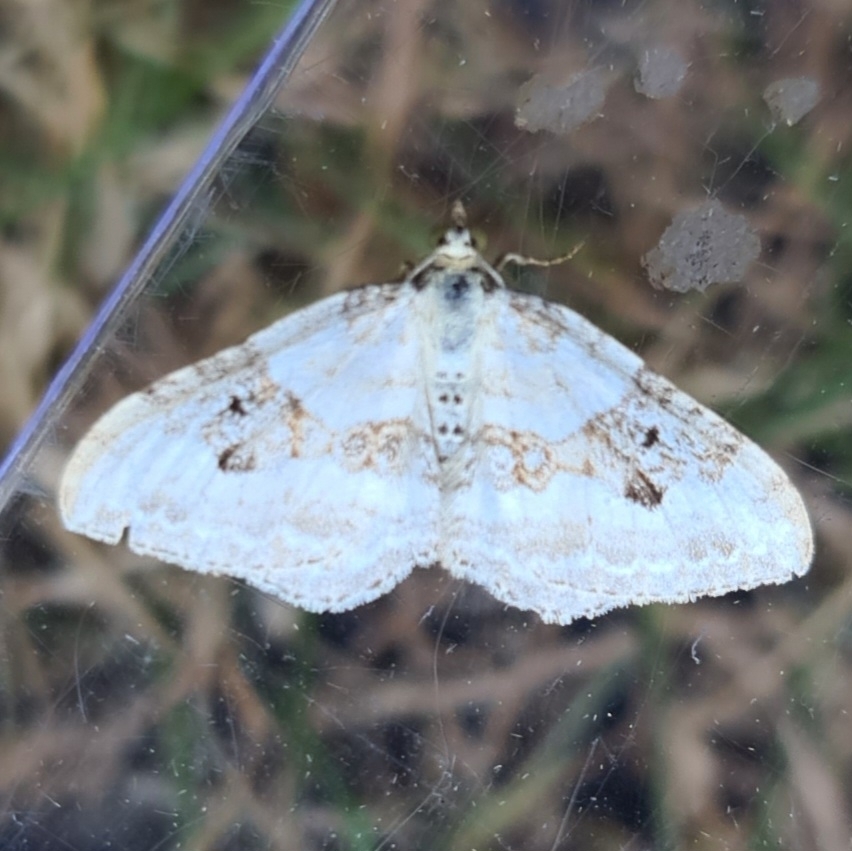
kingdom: Animalia
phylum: Arthropoda
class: Insecta
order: Lepidoptera
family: Geometridae
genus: Xanthorhoe
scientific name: Xanthorhoe montanata
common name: Silver-ground carpet
